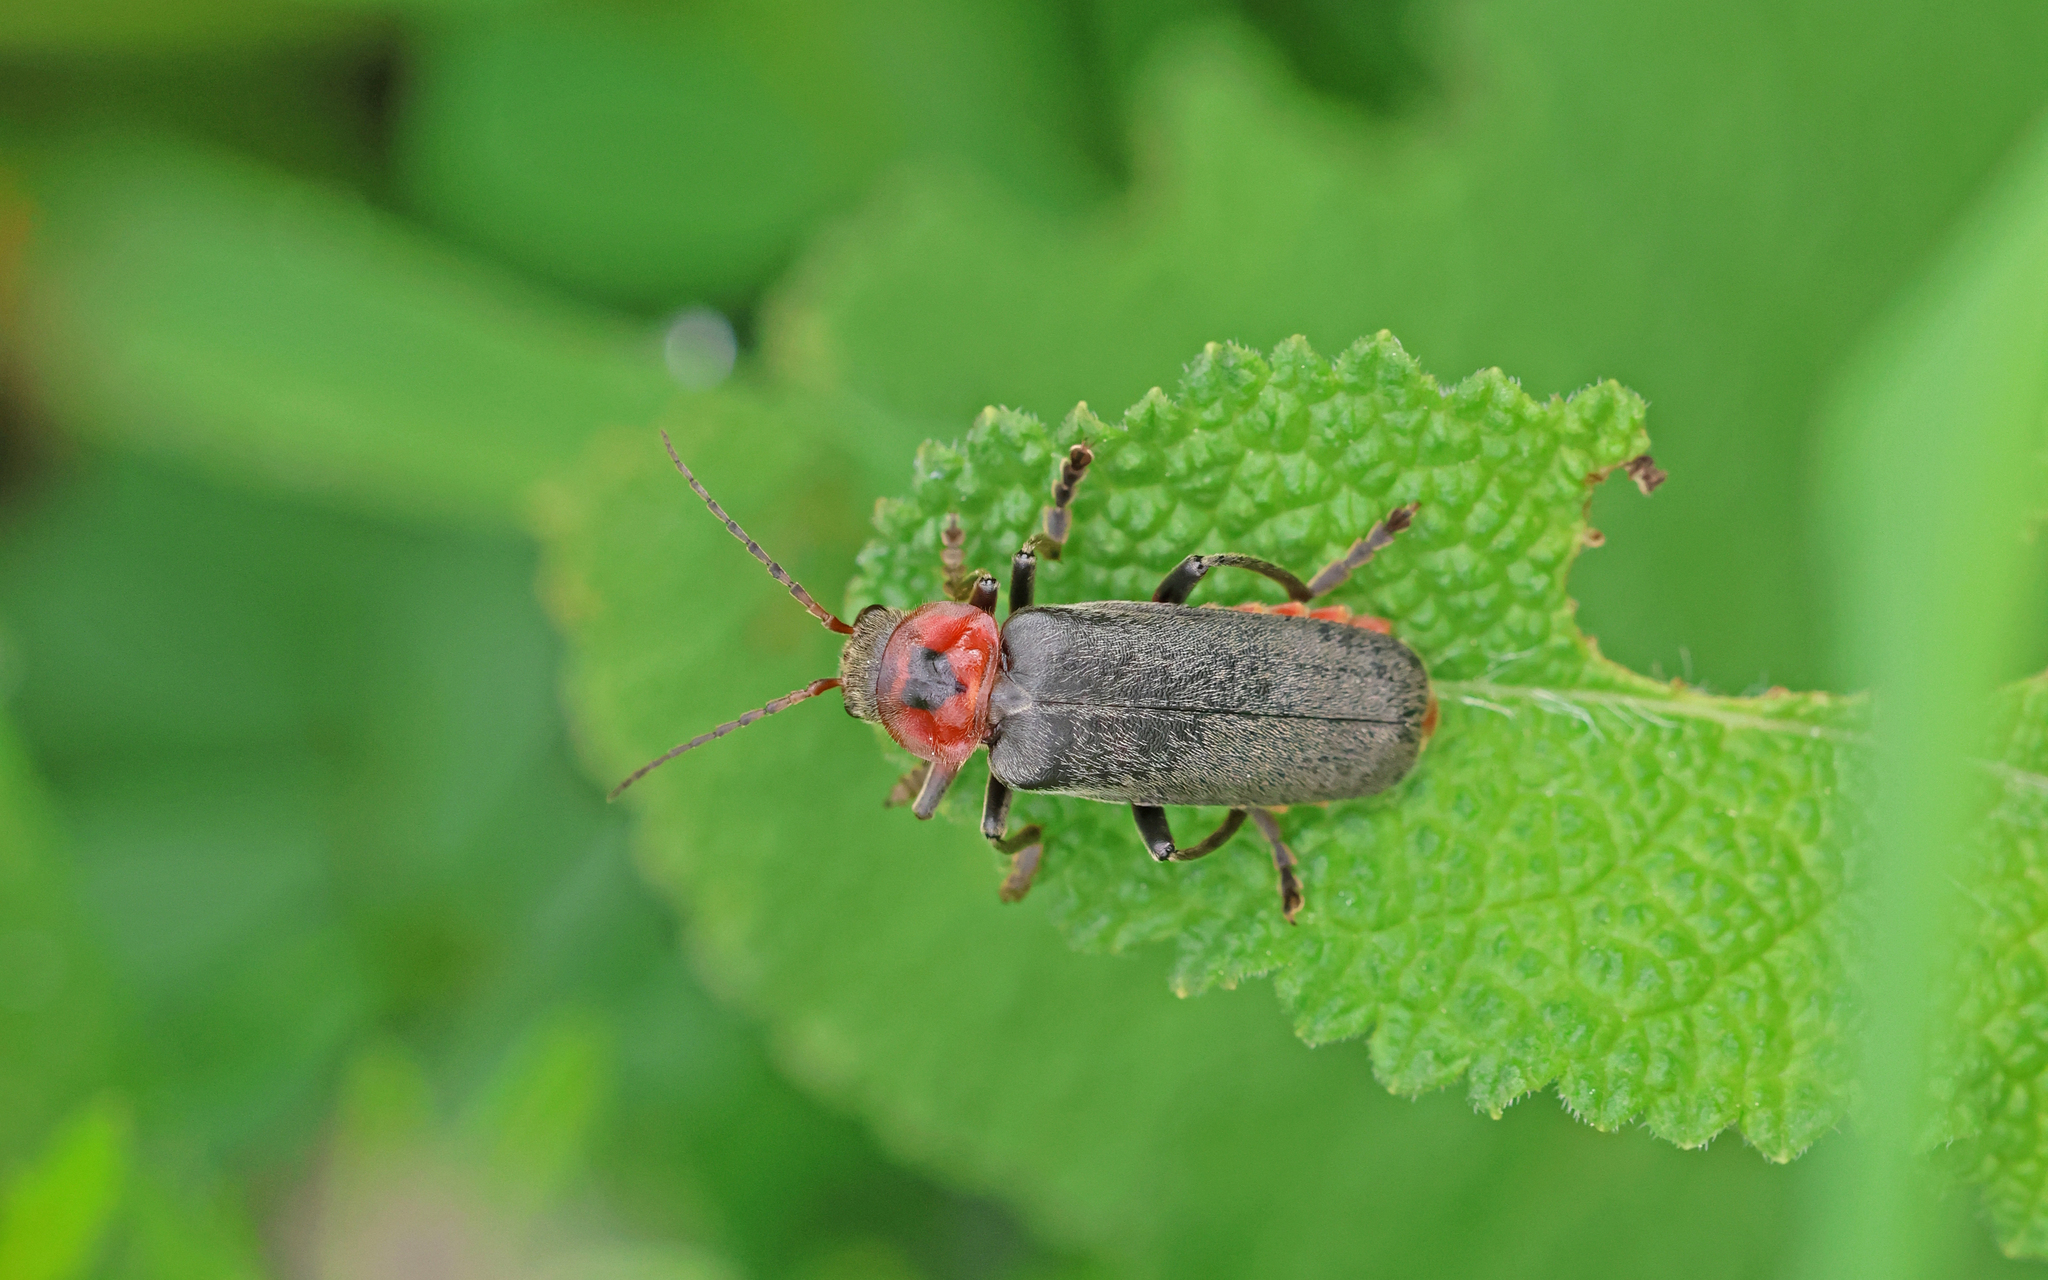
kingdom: Animalia
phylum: Arthropoda
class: Insecta
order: Coleoptera
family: Cantharidae
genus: Cantharis
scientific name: Cantharis rustica
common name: Soldier beetle
